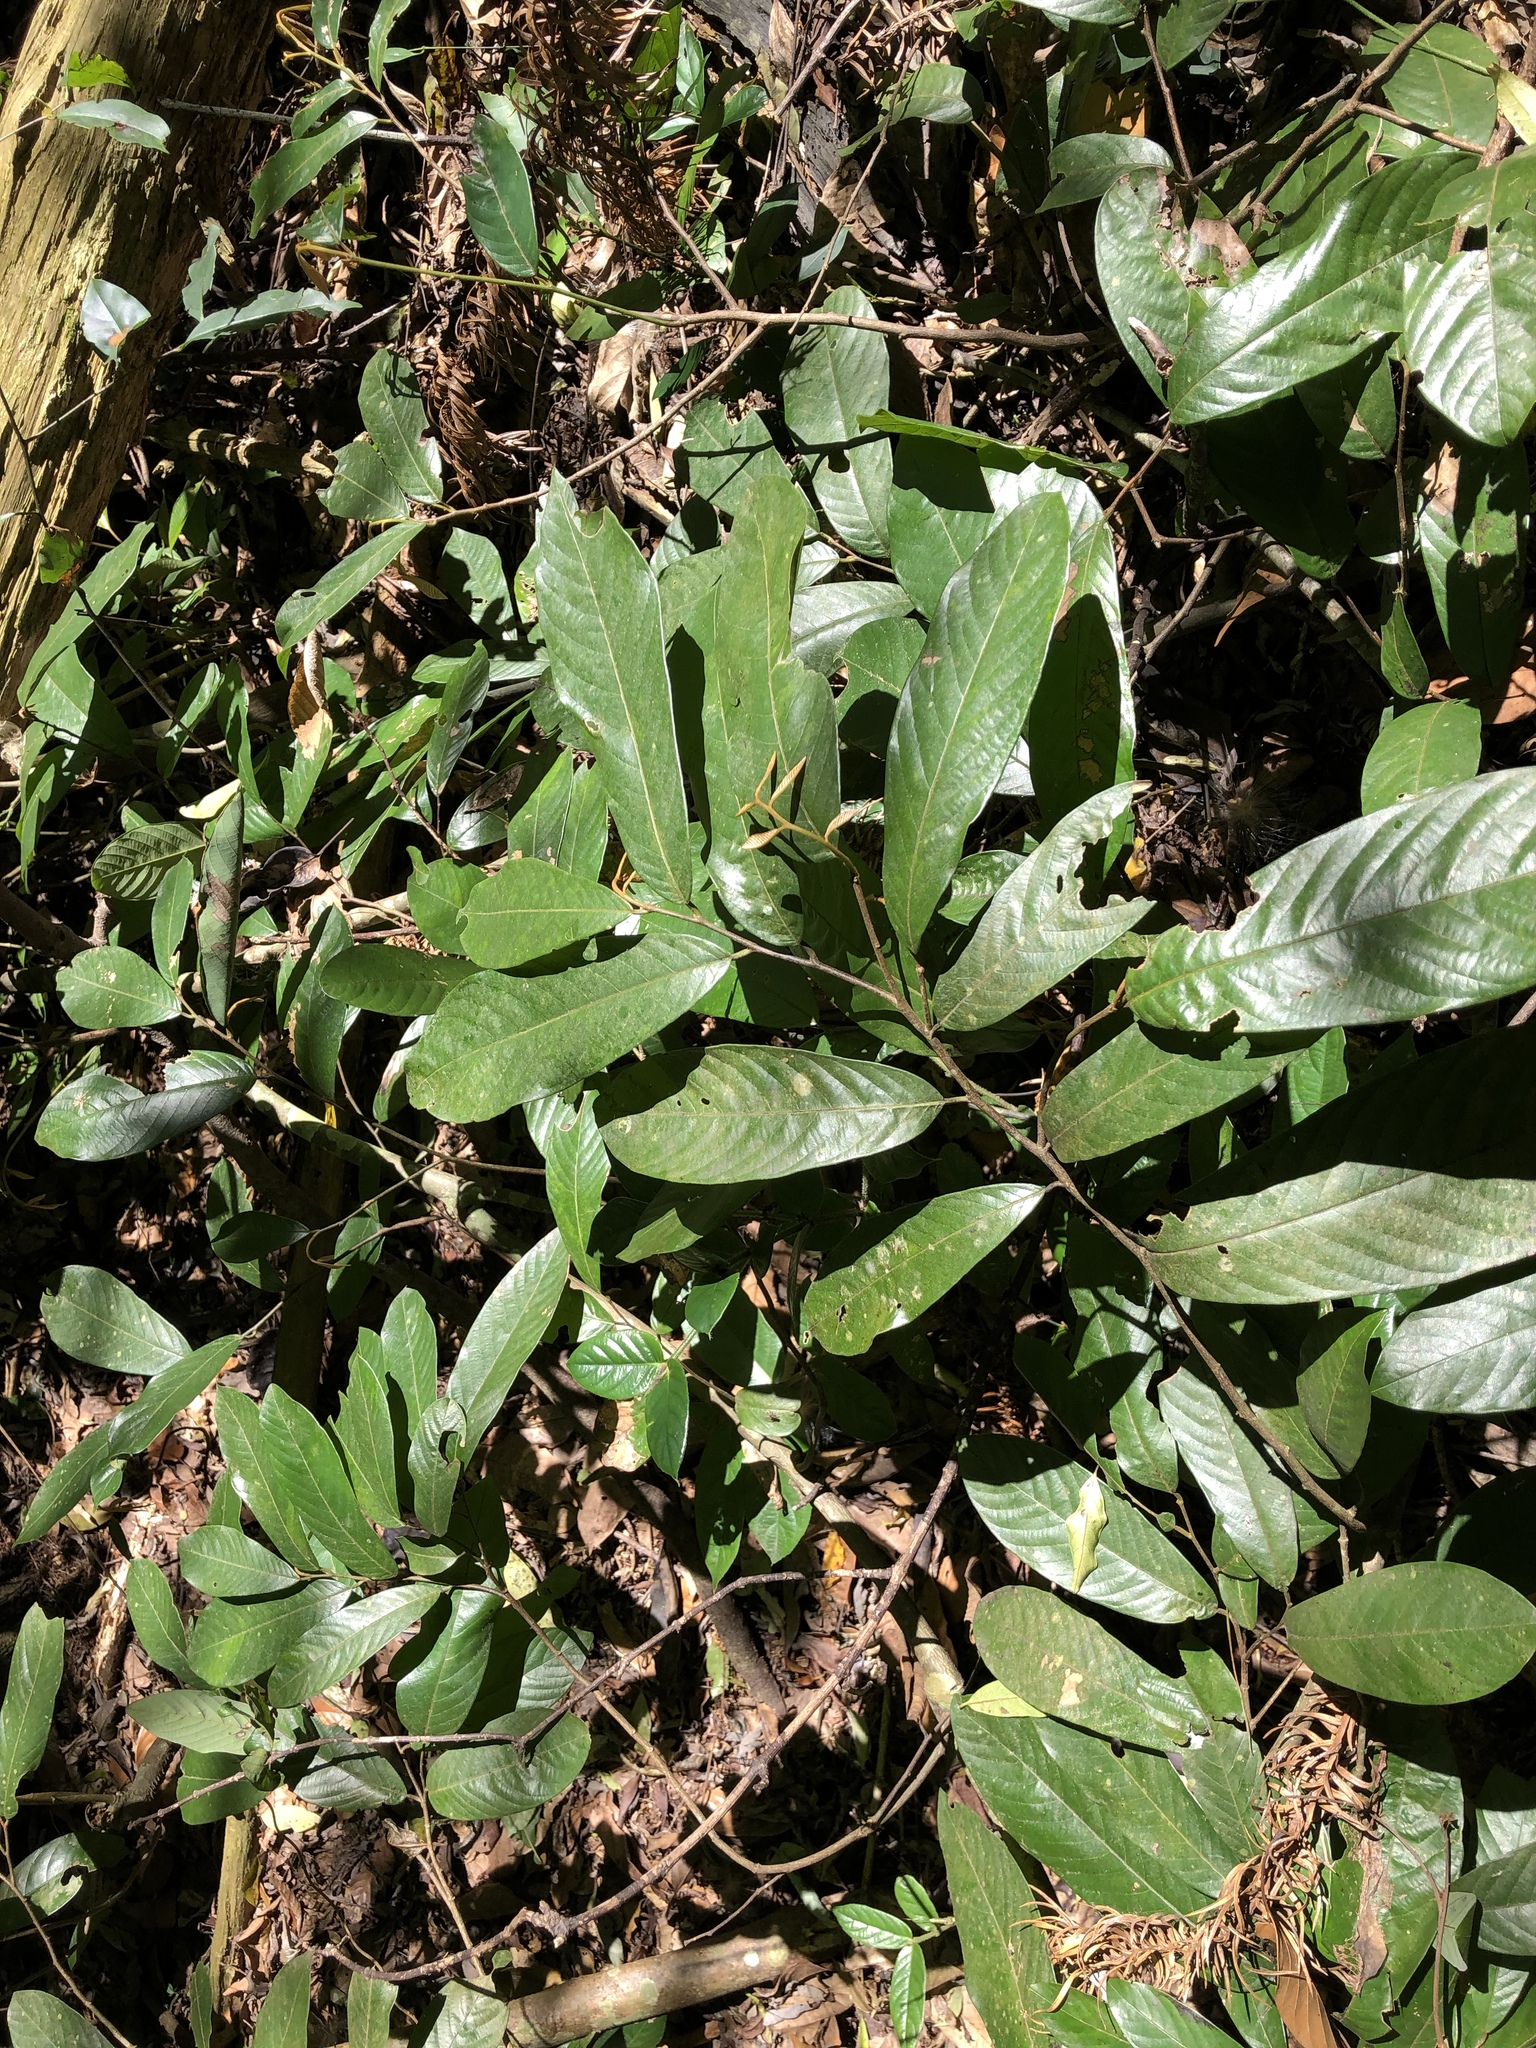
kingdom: Plantae
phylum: Tracheophyta
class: Magnoliopsida
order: Magnoliales
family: Annonaceae
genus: Fissistigma
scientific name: Fissistigma oldhamii
